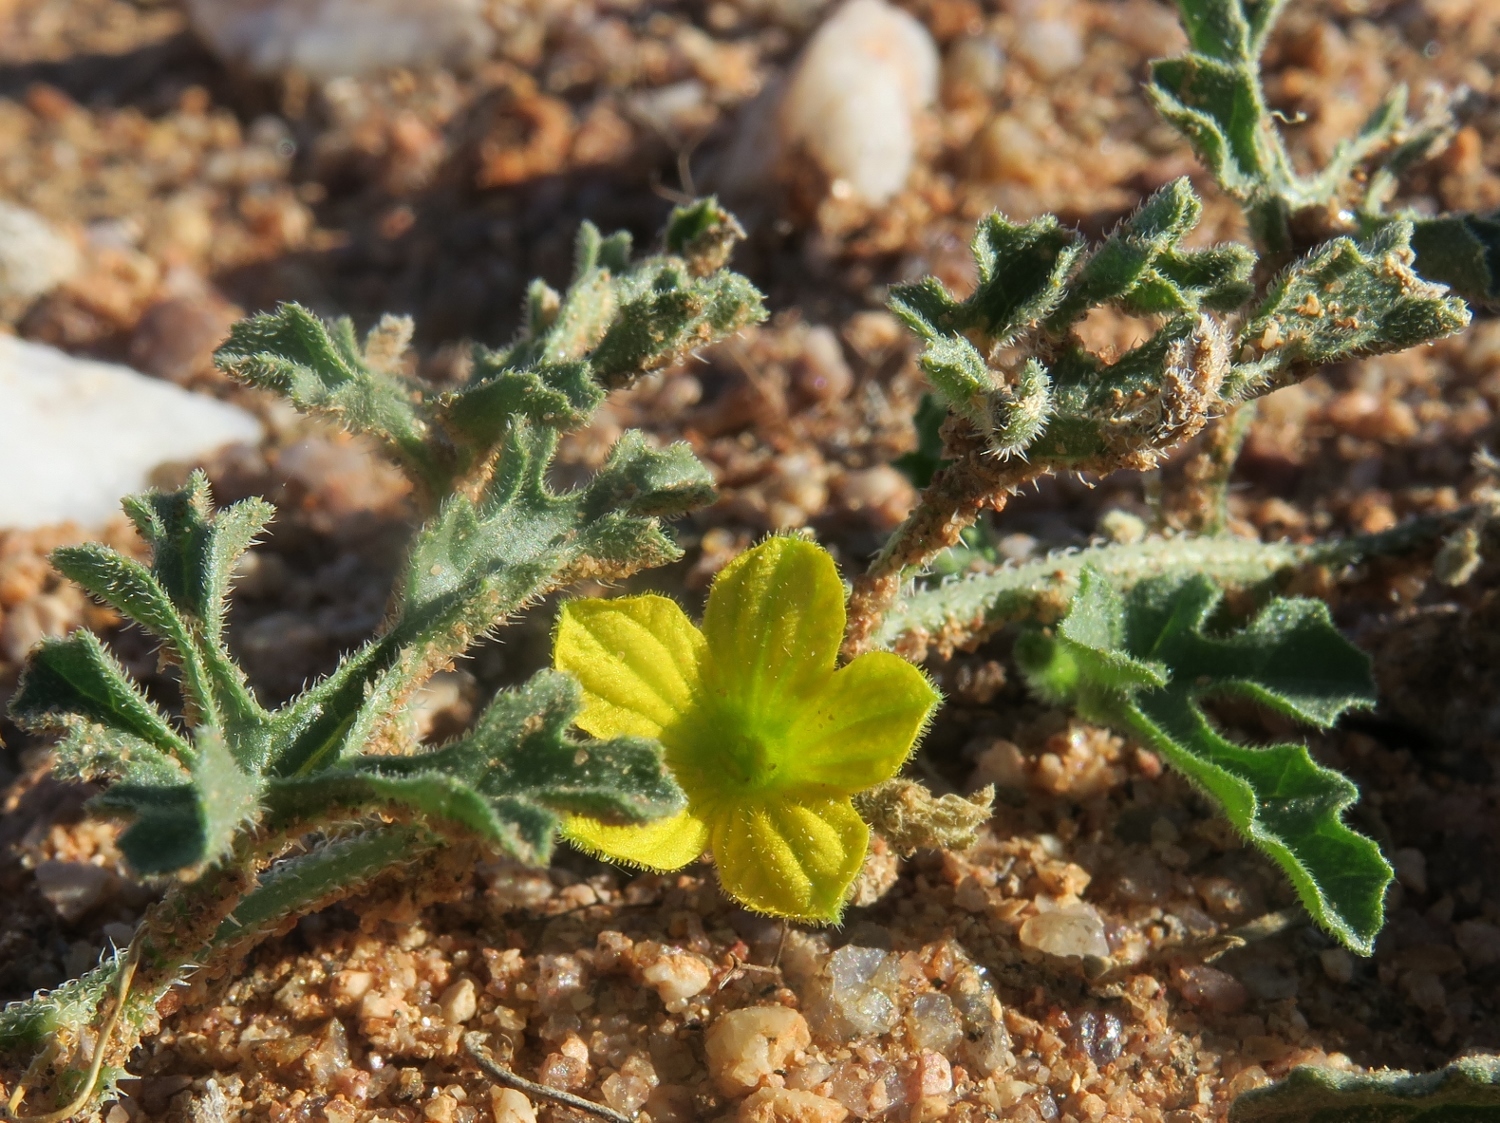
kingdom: Plantae
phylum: Tracheophyta
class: Magnoliopsida
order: Cucurbitales
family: Cucurbitaceae
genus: Cucumis
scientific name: Cucumis africanus
